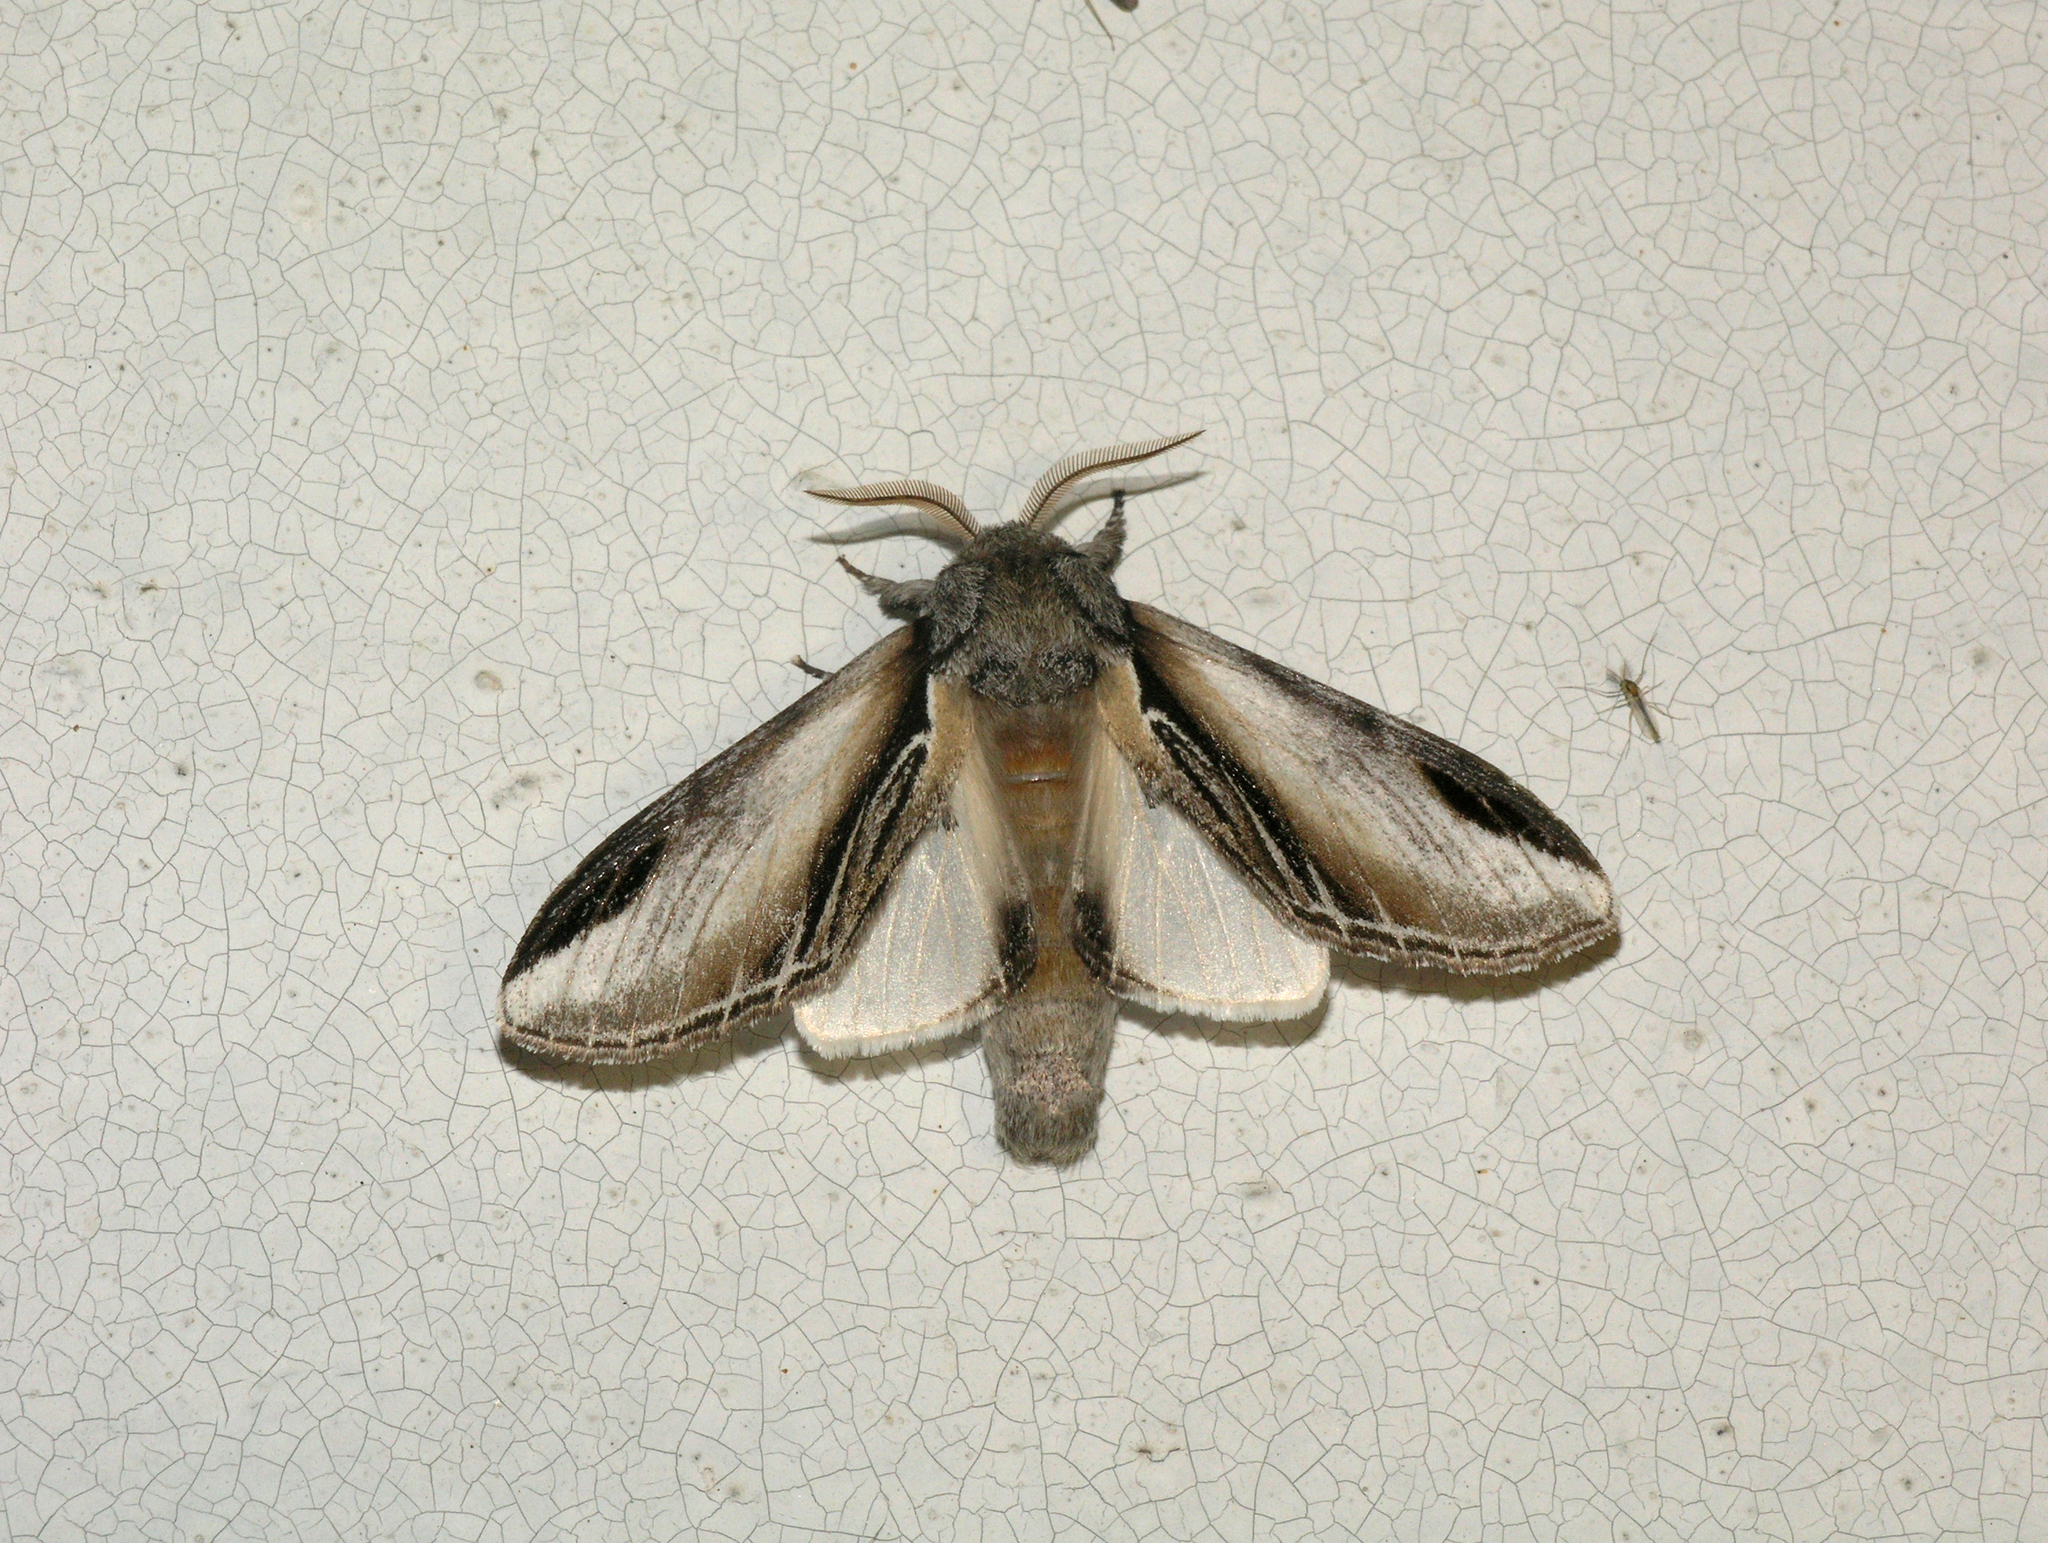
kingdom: Animalia
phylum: Arthropoda
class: Insecta
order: Lepidoptera
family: Notodontidae
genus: Pheosia
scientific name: Pheosia tremula
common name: Swallow prominent
